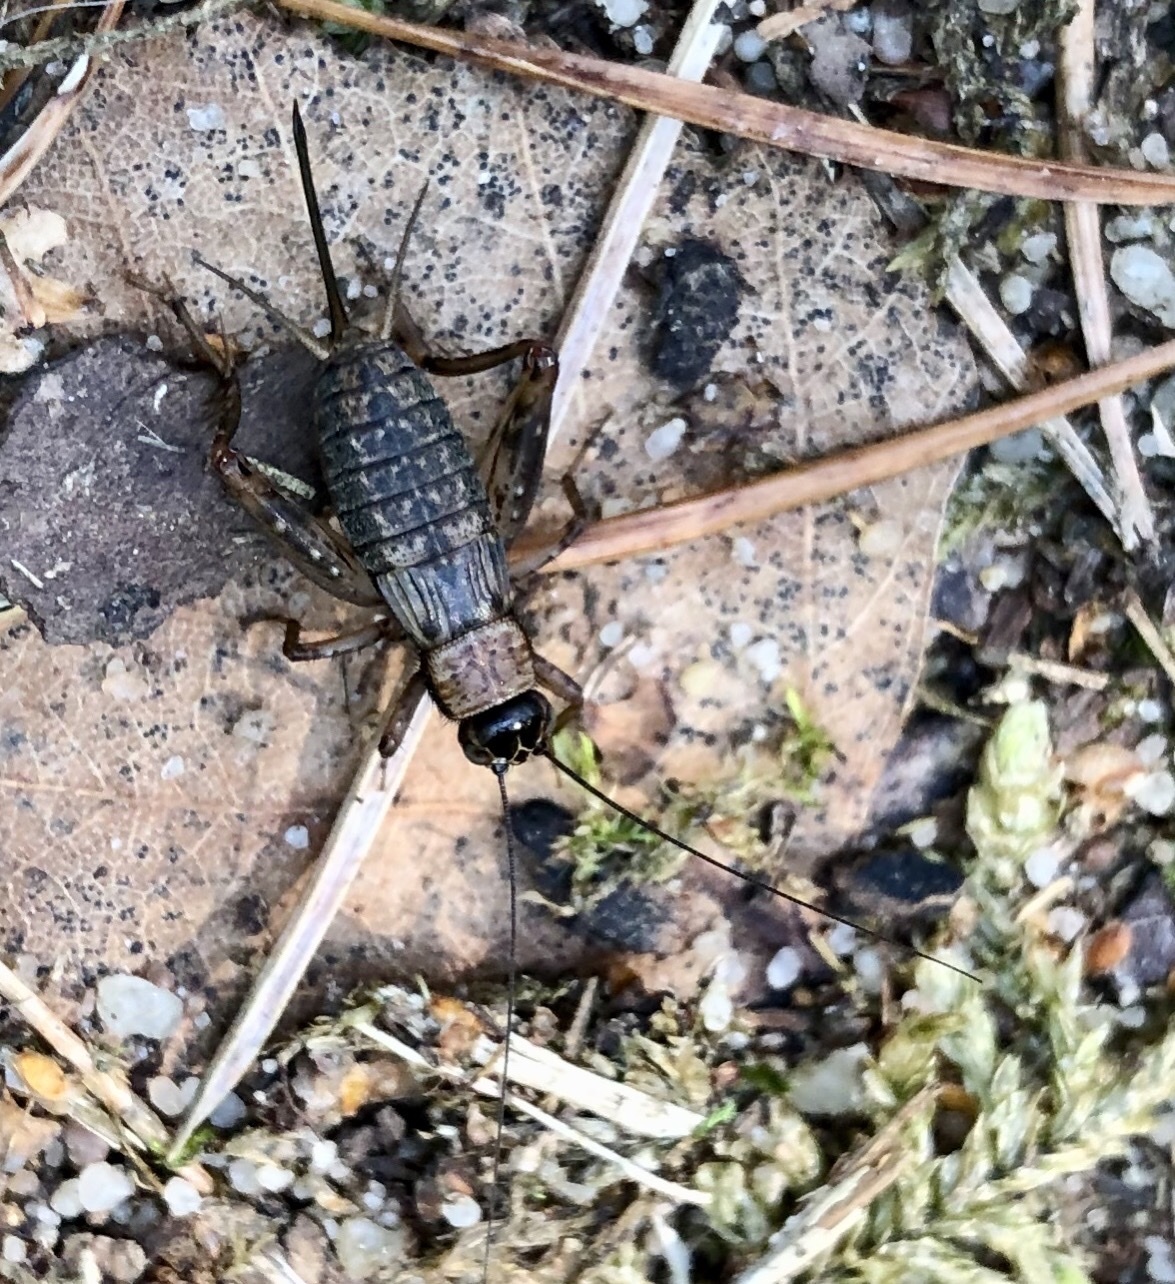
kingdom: Animalia
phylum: Arthropoda
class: Insecta
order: Orthoptera
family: Trigonidiidae
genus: Nemobius
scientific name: Nemobius sylvestris
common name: Wood-cricket
